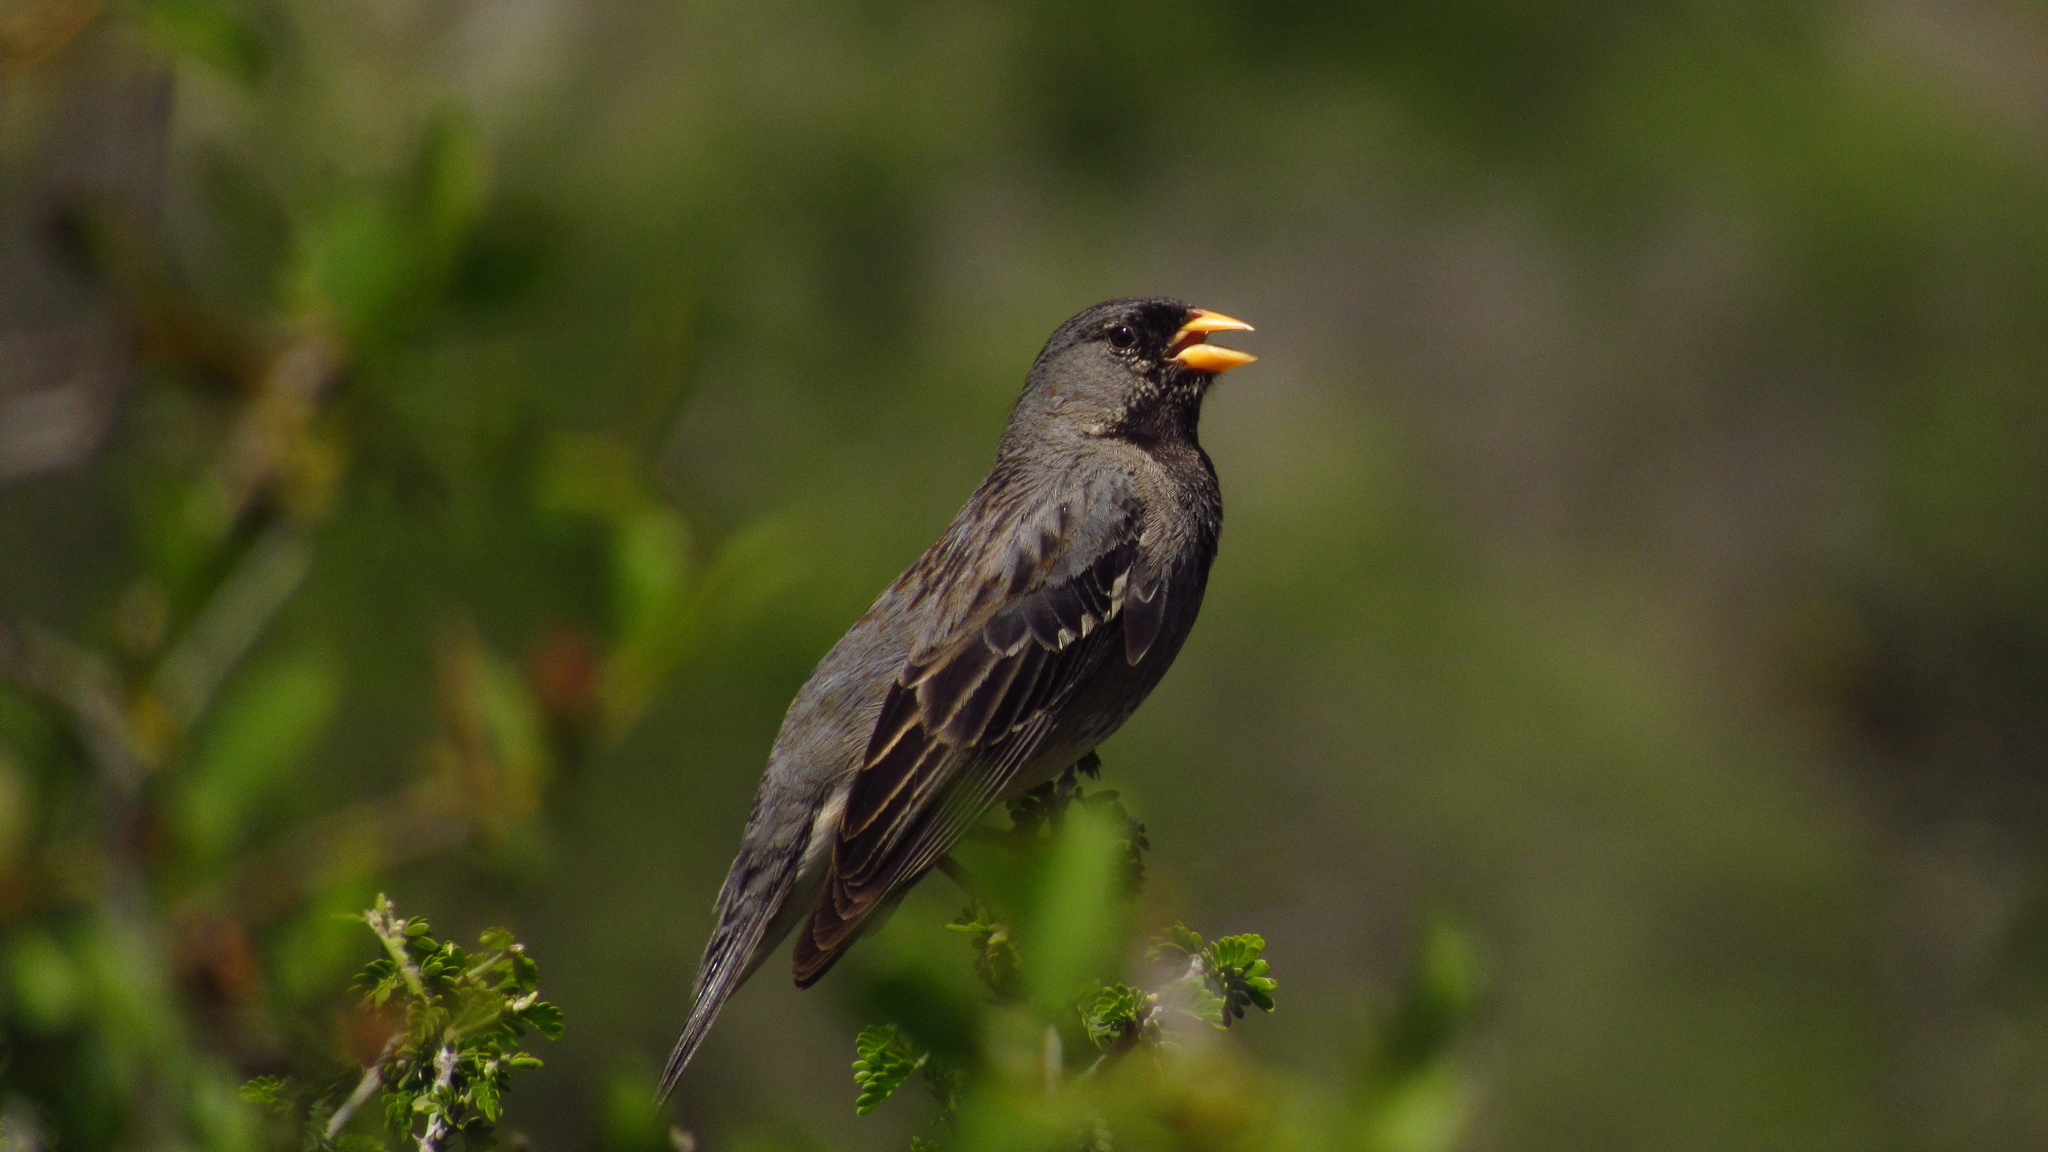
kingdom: Animalia
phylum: Chordata
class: Aves
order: Passeriformes
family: Thraupidae
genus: Rhopospina
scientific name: Rhopospina fruticeti
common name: Mourning sierra finch
